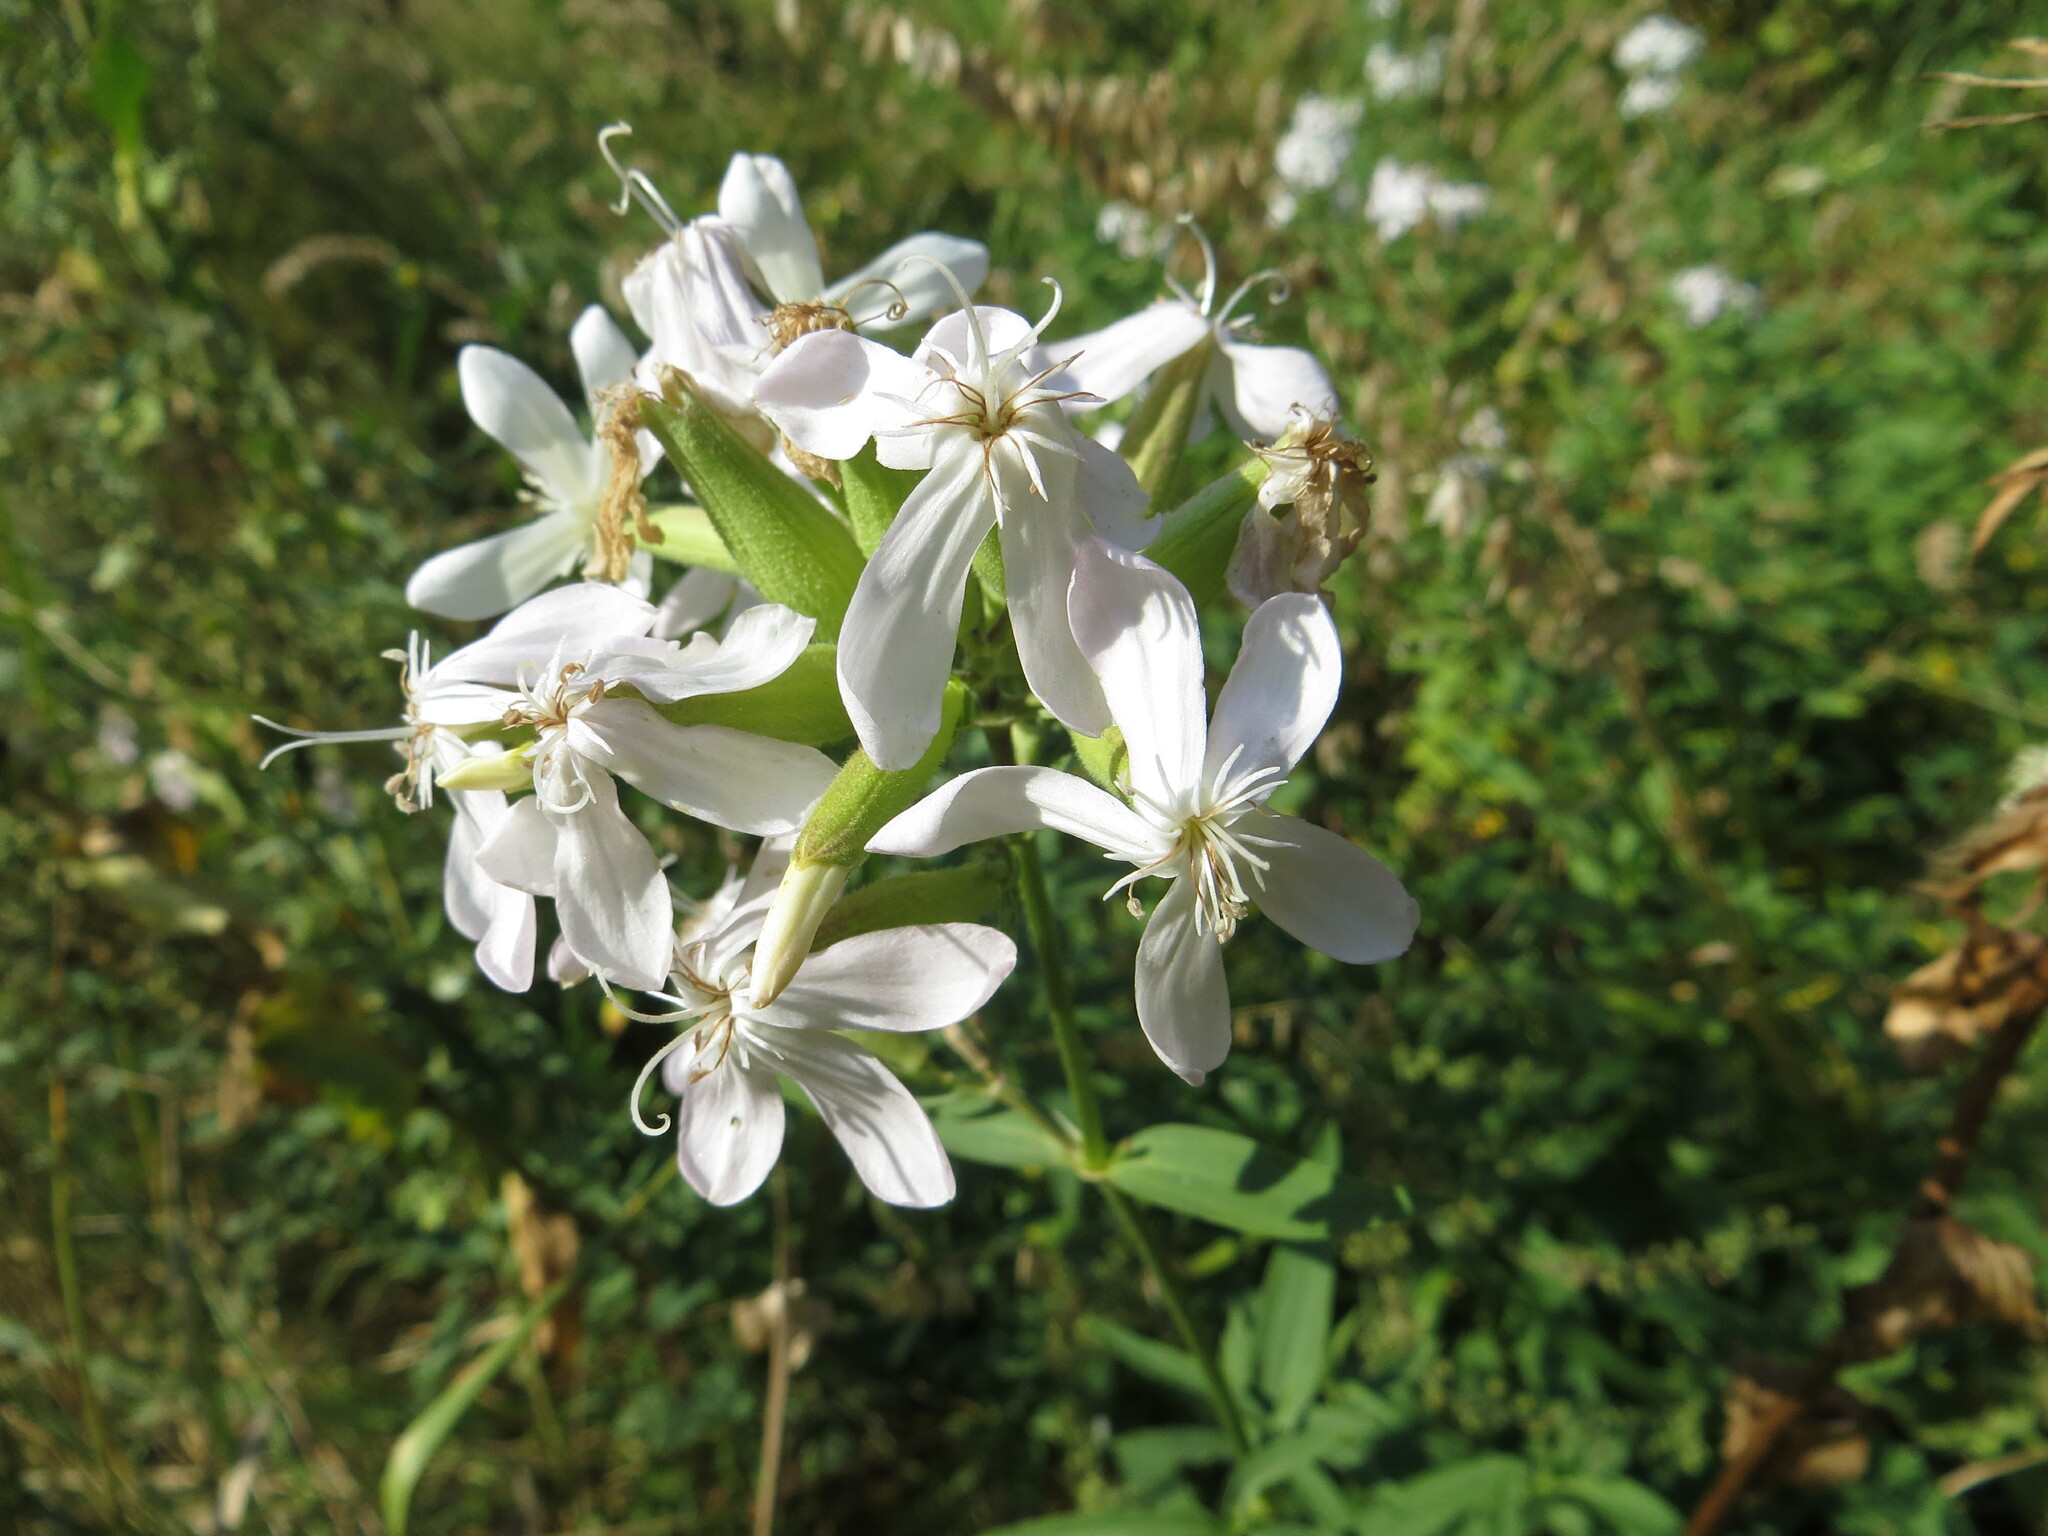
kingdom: Plantae
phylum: Tracheophyta
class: Magnoliopsida
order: Caryophyllales
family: Caryophyllaceae
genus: Saponaria
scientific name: Saponaria officinalis
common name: Soapwort
